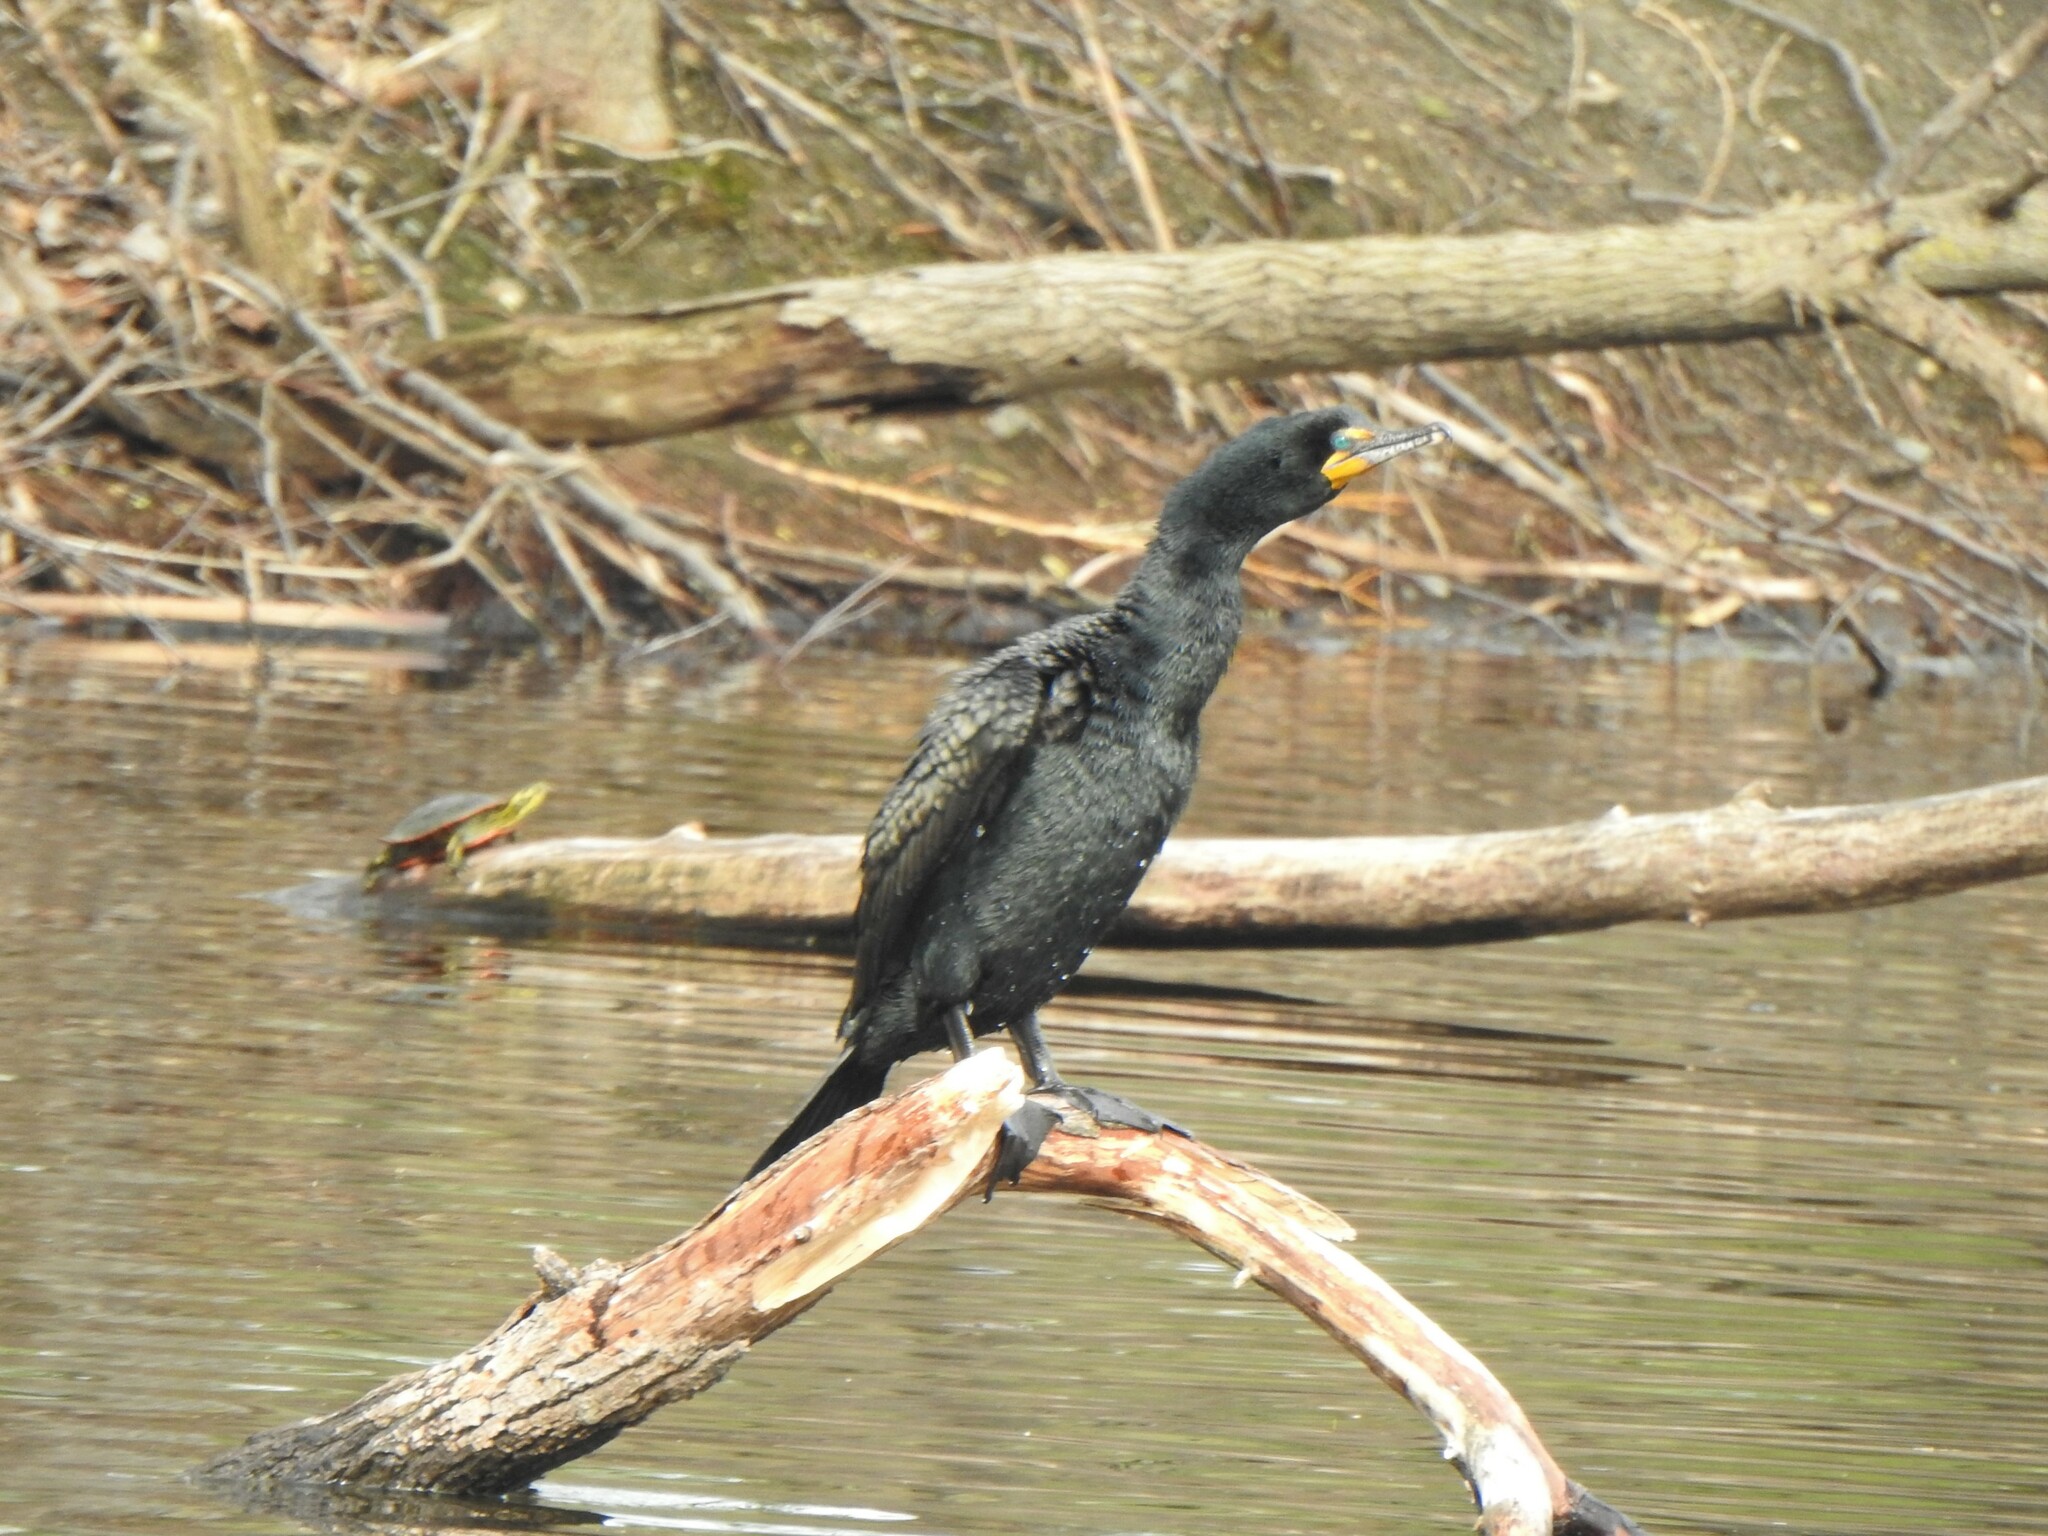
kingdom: Animalia
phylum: Chordata
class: Aves
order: Suliformes
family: Phalacrocoracidae
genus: Phalacrocorax
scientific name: Phalacrocorax auritus
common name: Double-crested cormorant
